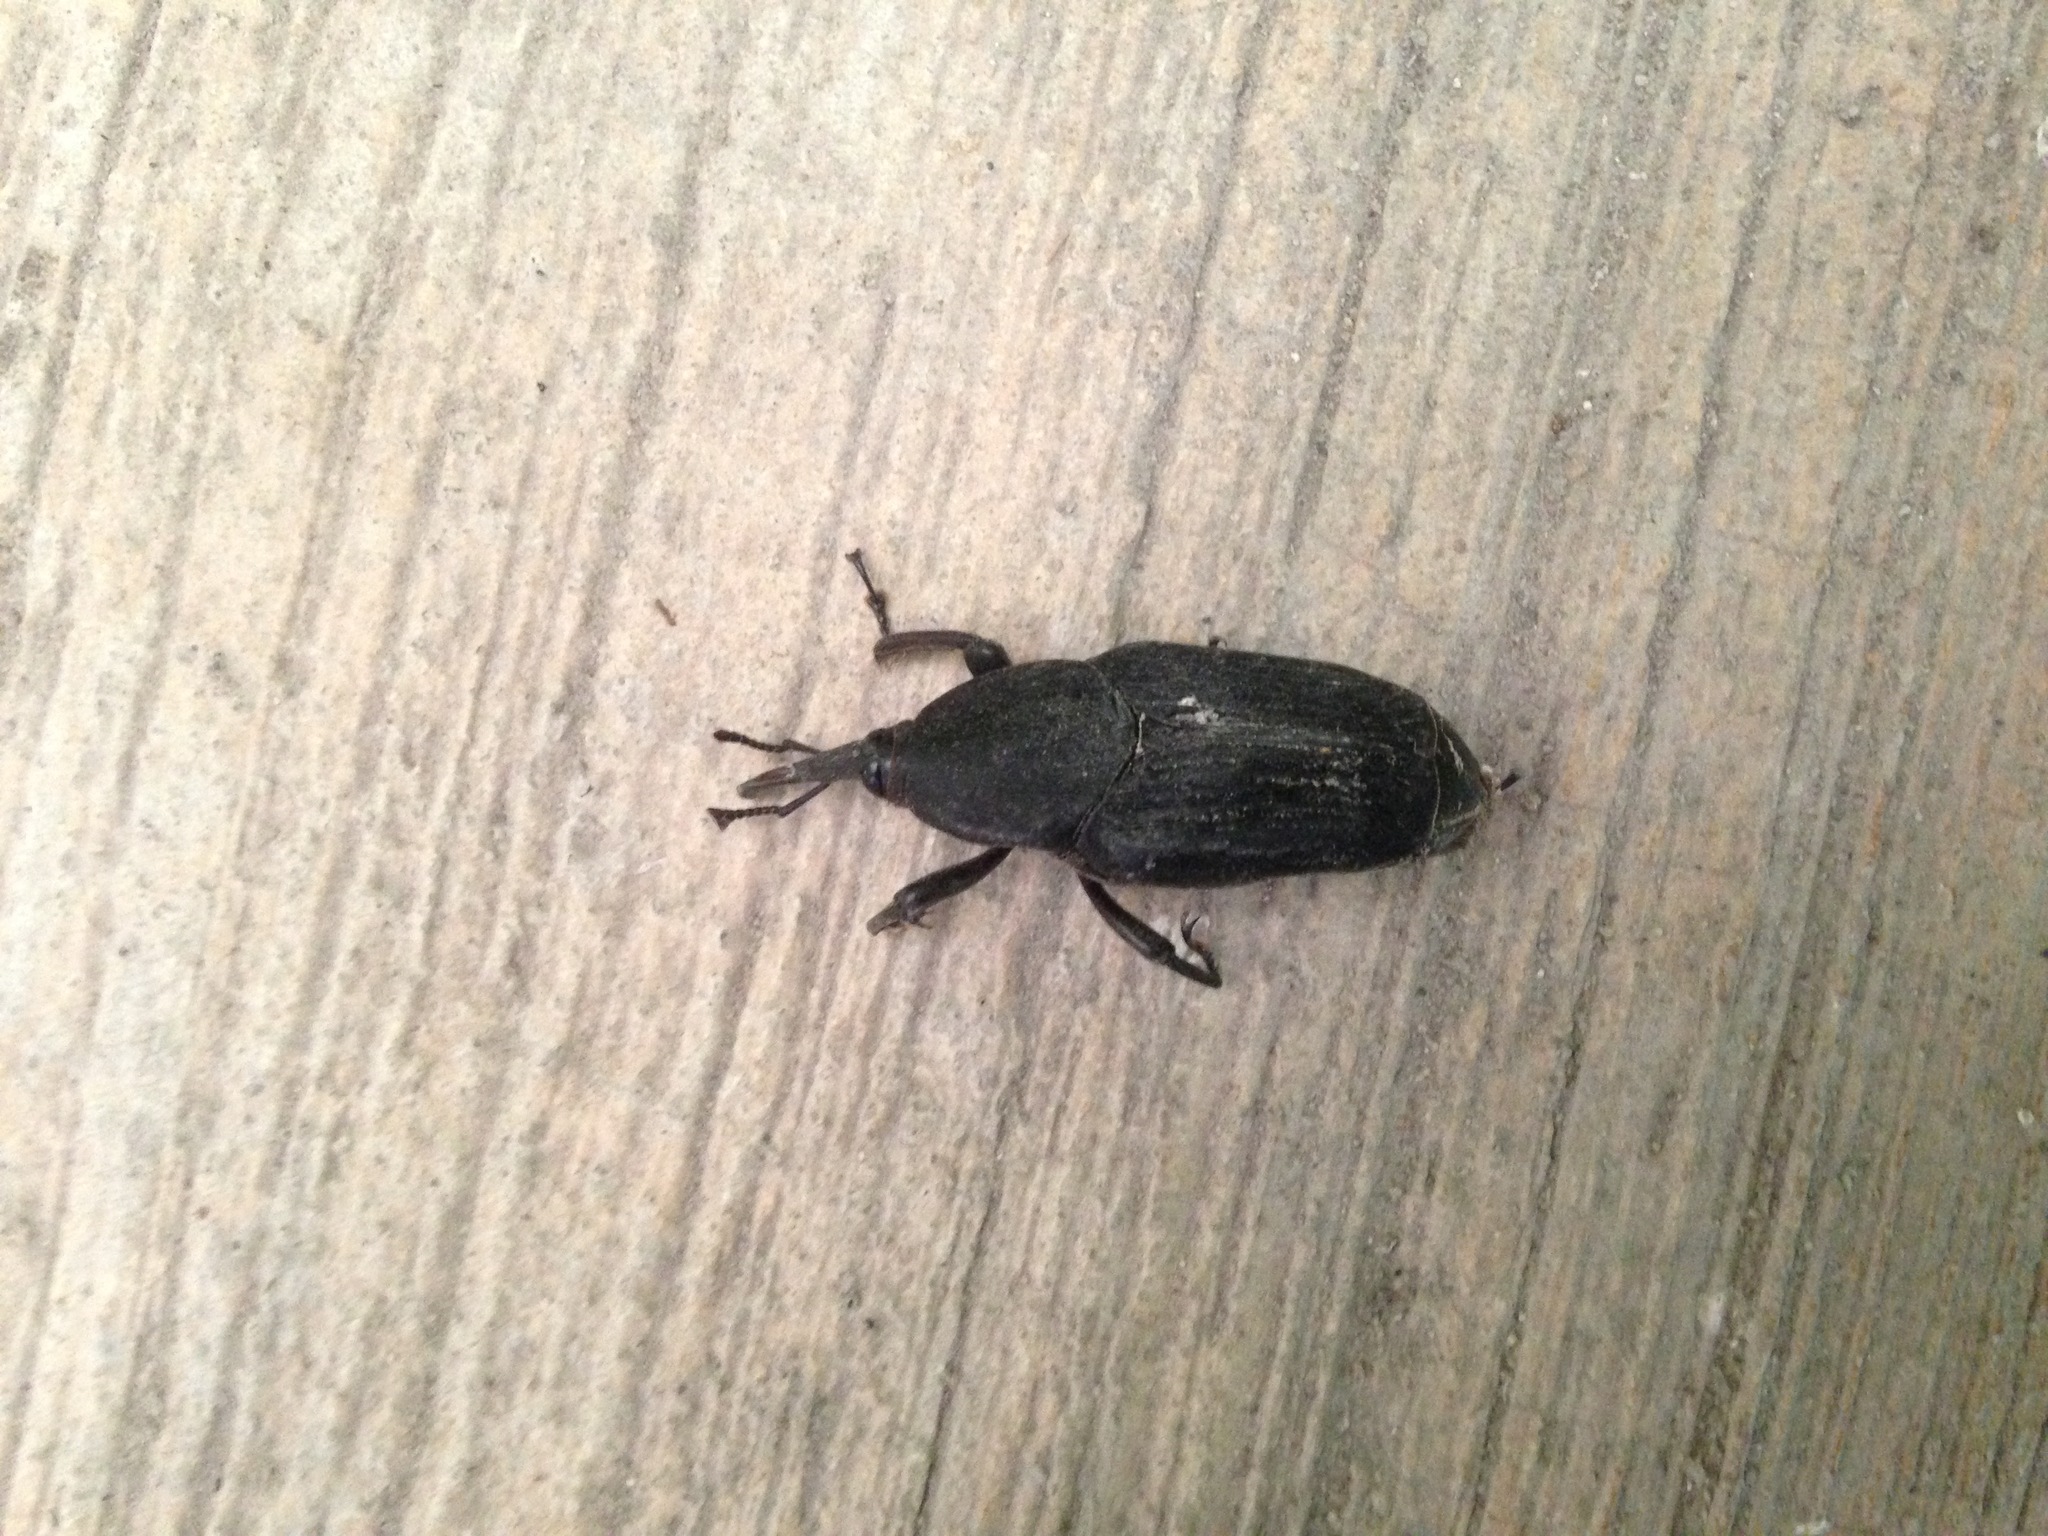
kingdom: Animalia
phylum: Arthropoda
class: Insecta
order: Coleoptera
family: Dryophthoridae
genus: Rhynchophorus
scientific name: Rhynchophorus palmarum
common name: Palm weevil
